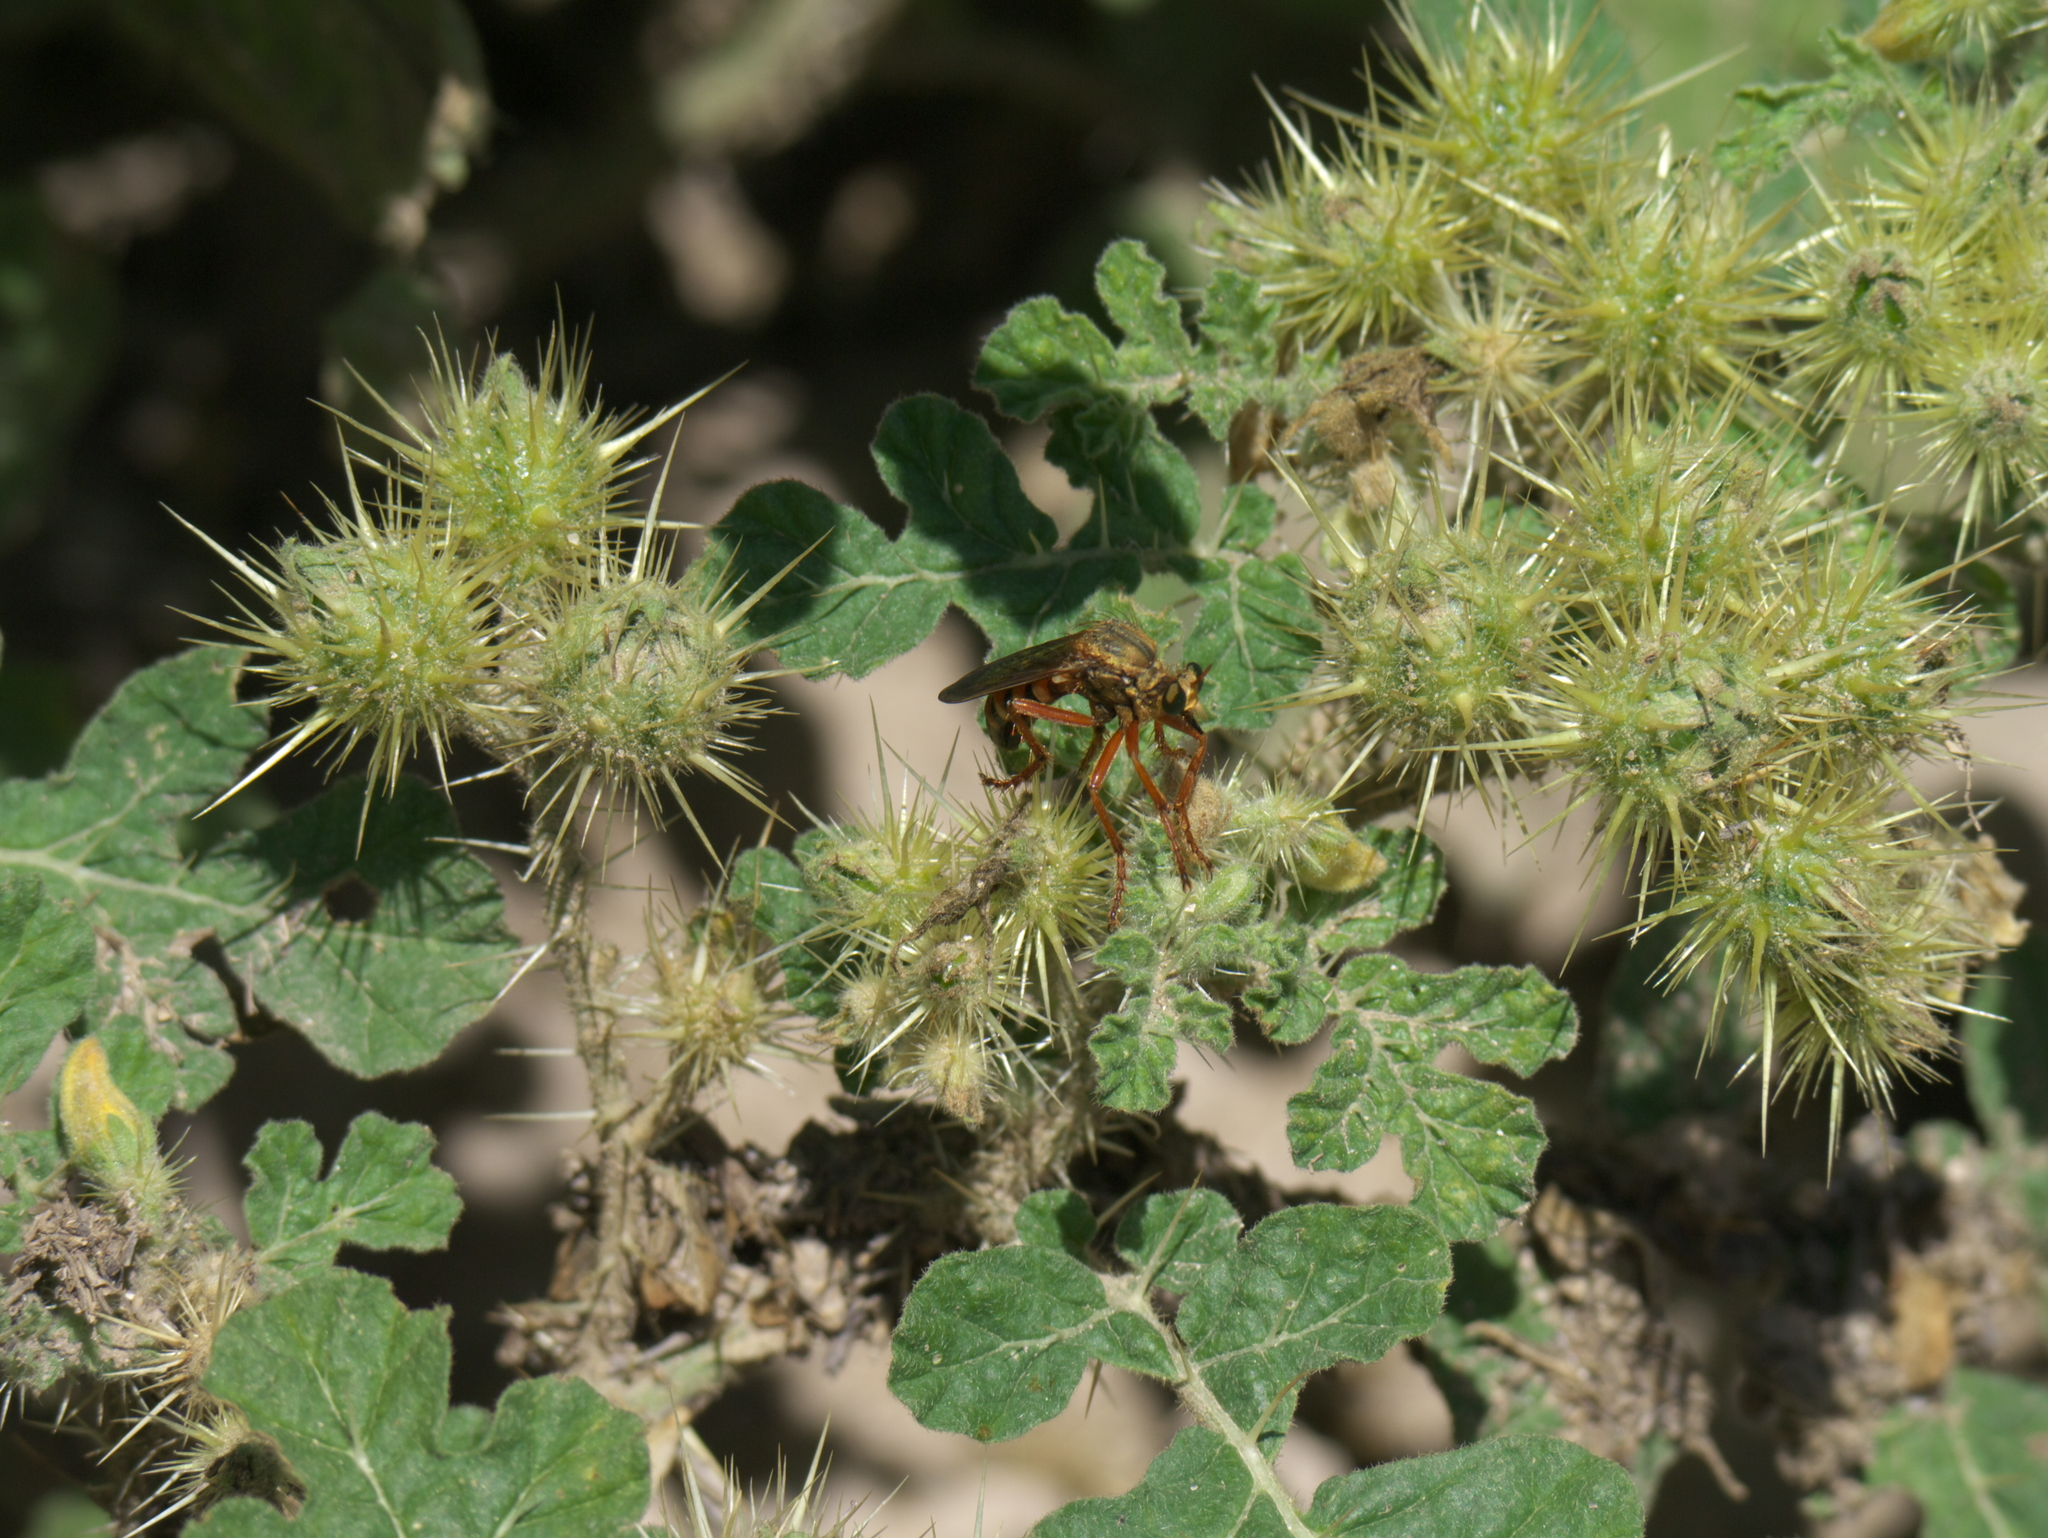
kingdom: Plantae
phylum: Tracheophyta
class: Magnoliopsida
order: Solanales
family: Solanaceae
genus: Solanum
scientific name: Solanum angustifolium
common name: Buffalobur nightshade
